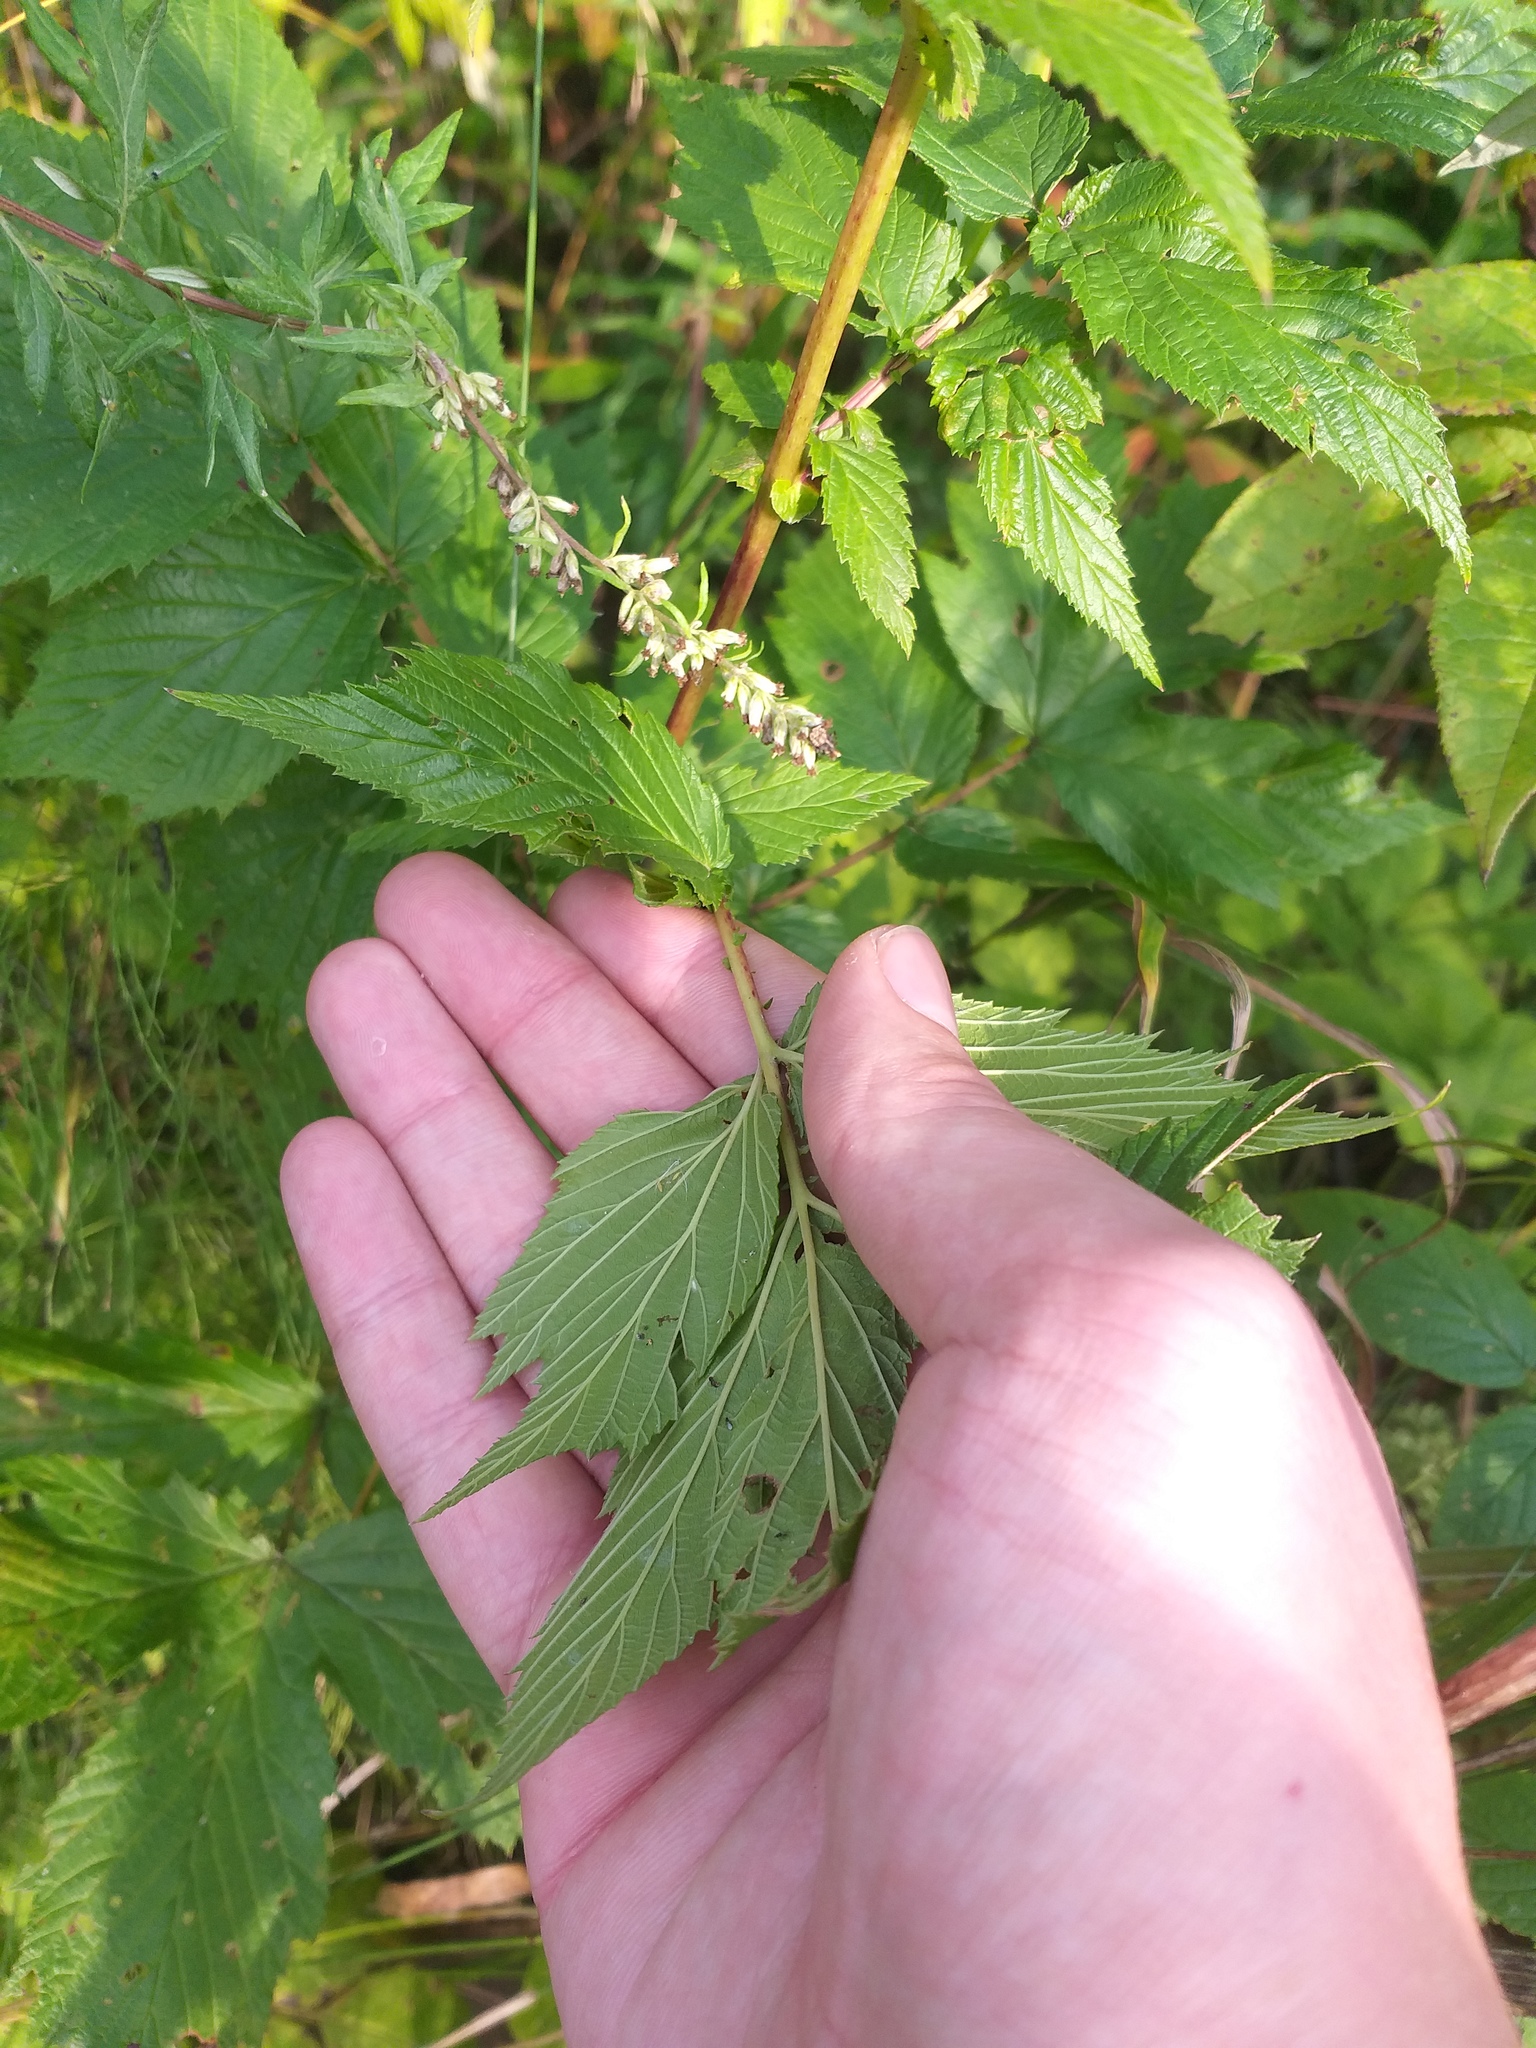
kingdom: Plantae
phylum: Tracheophyta
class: Magnoliopsida
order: Rosales
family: Rosaceae
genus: Filipendula
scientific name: Filipendula ulmaria
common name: Meadowsweet
